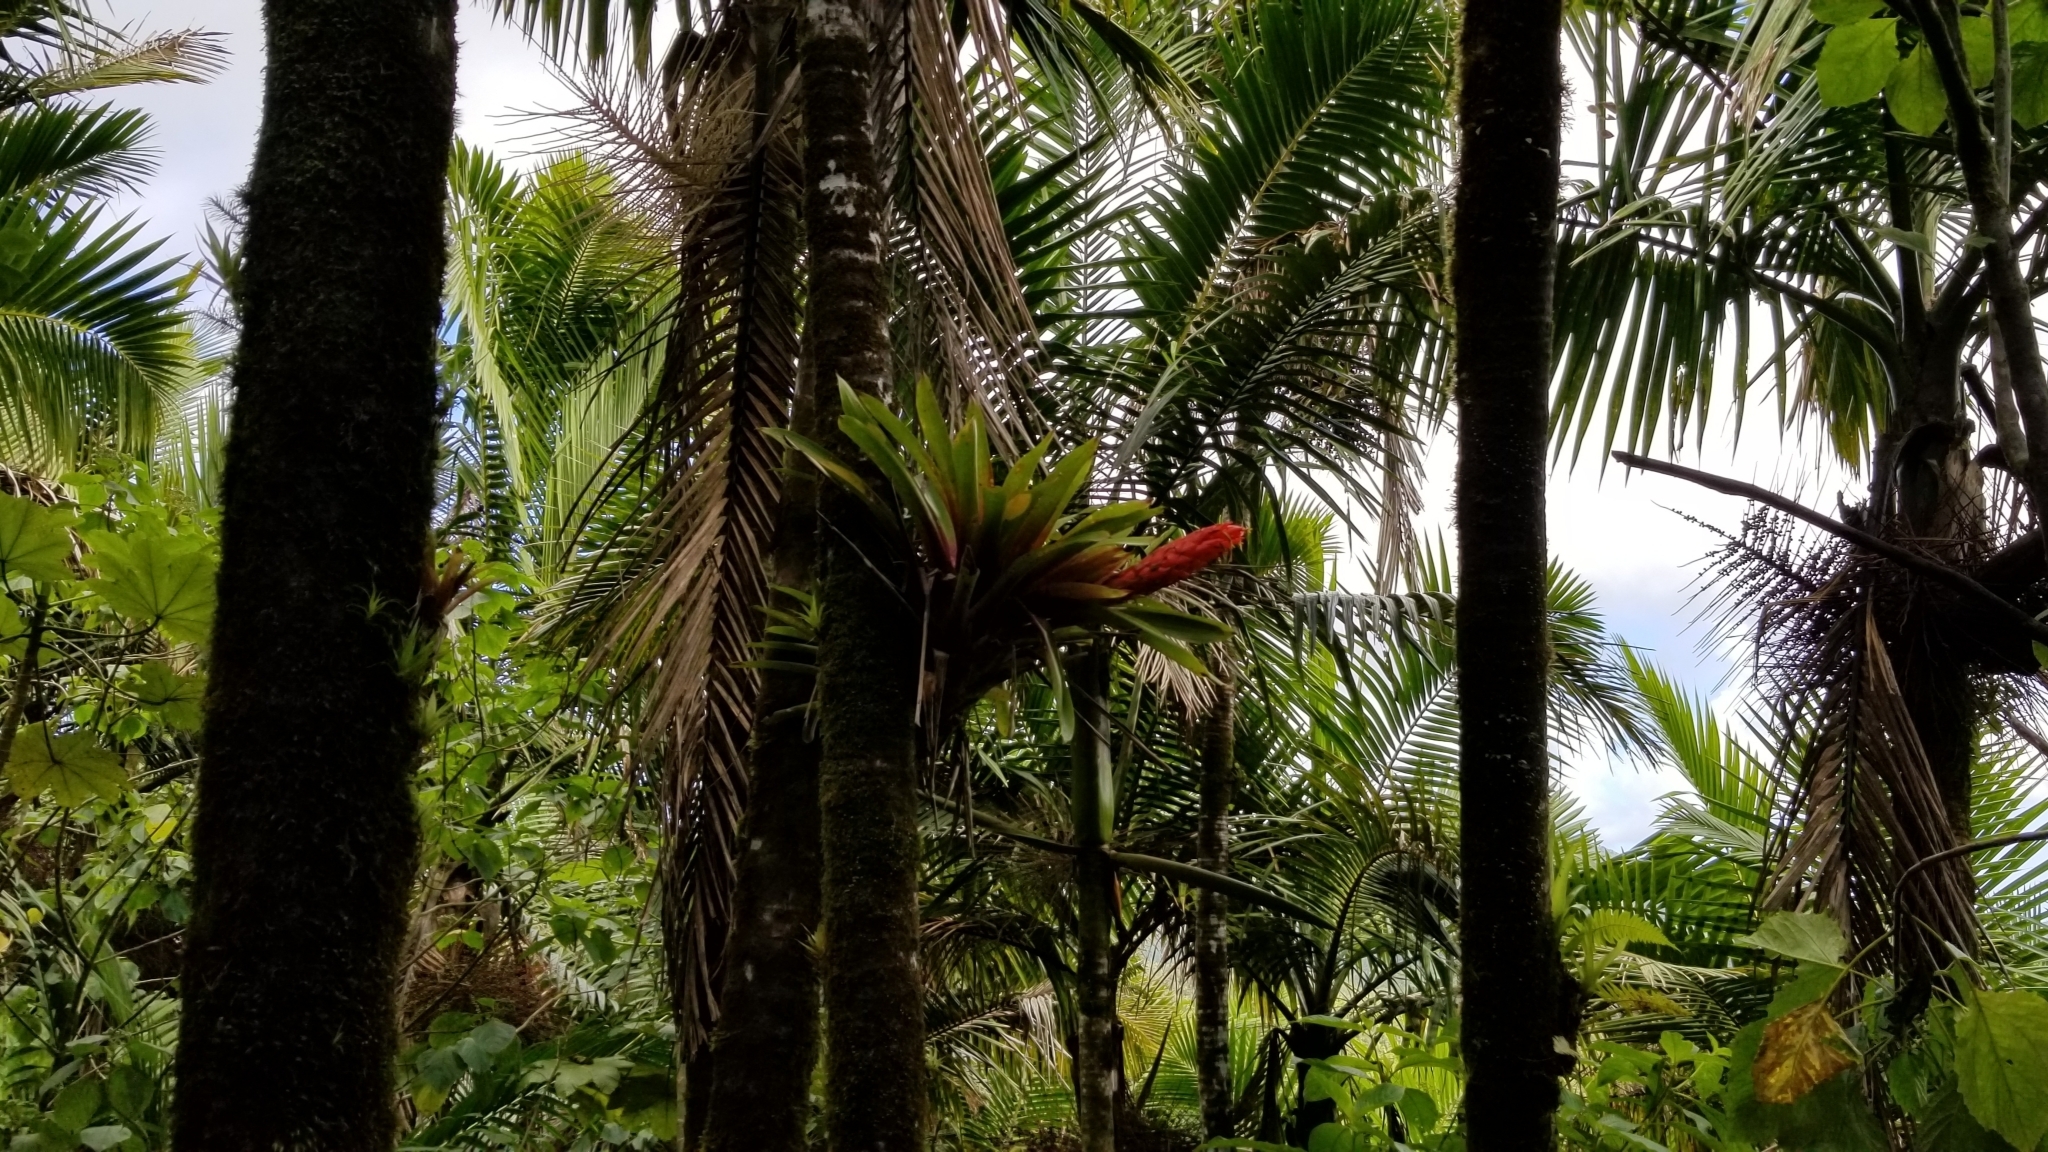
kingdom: Plantae
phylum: Tracheophyta
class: Liliopsida
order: Poales
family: Bromeliaceae
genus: Guzmania
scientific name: Guzmania berteroniana
